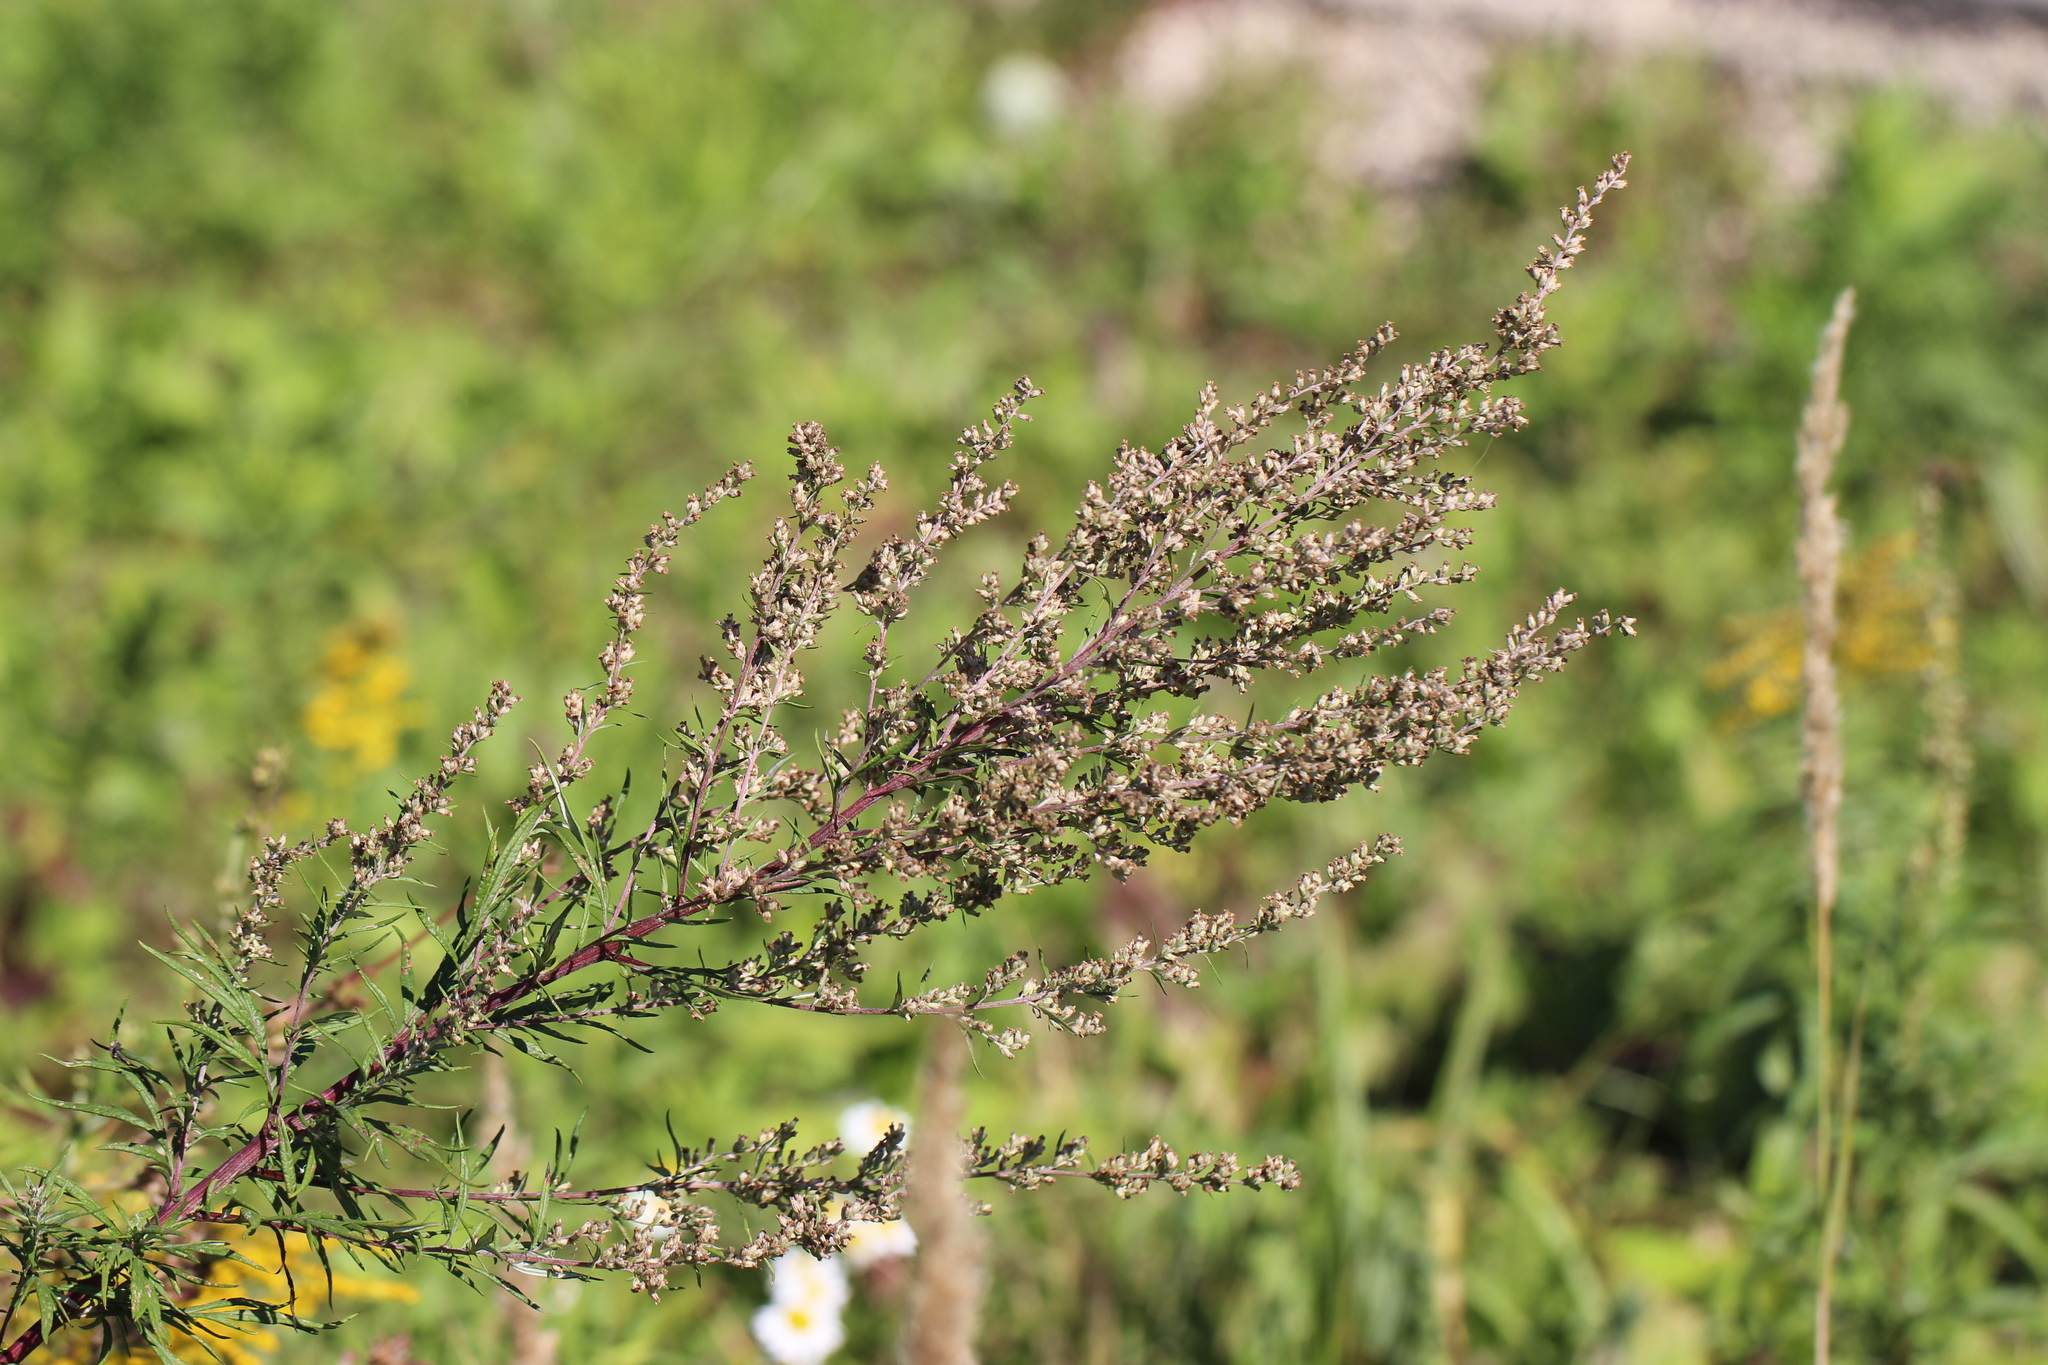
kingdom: Plantae
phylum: Tracheophyta
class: Magnoliopsida
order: Asterales
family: Asteraceae
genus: Artemisia
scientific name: Artemisia vulgaris
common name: Mugwort
